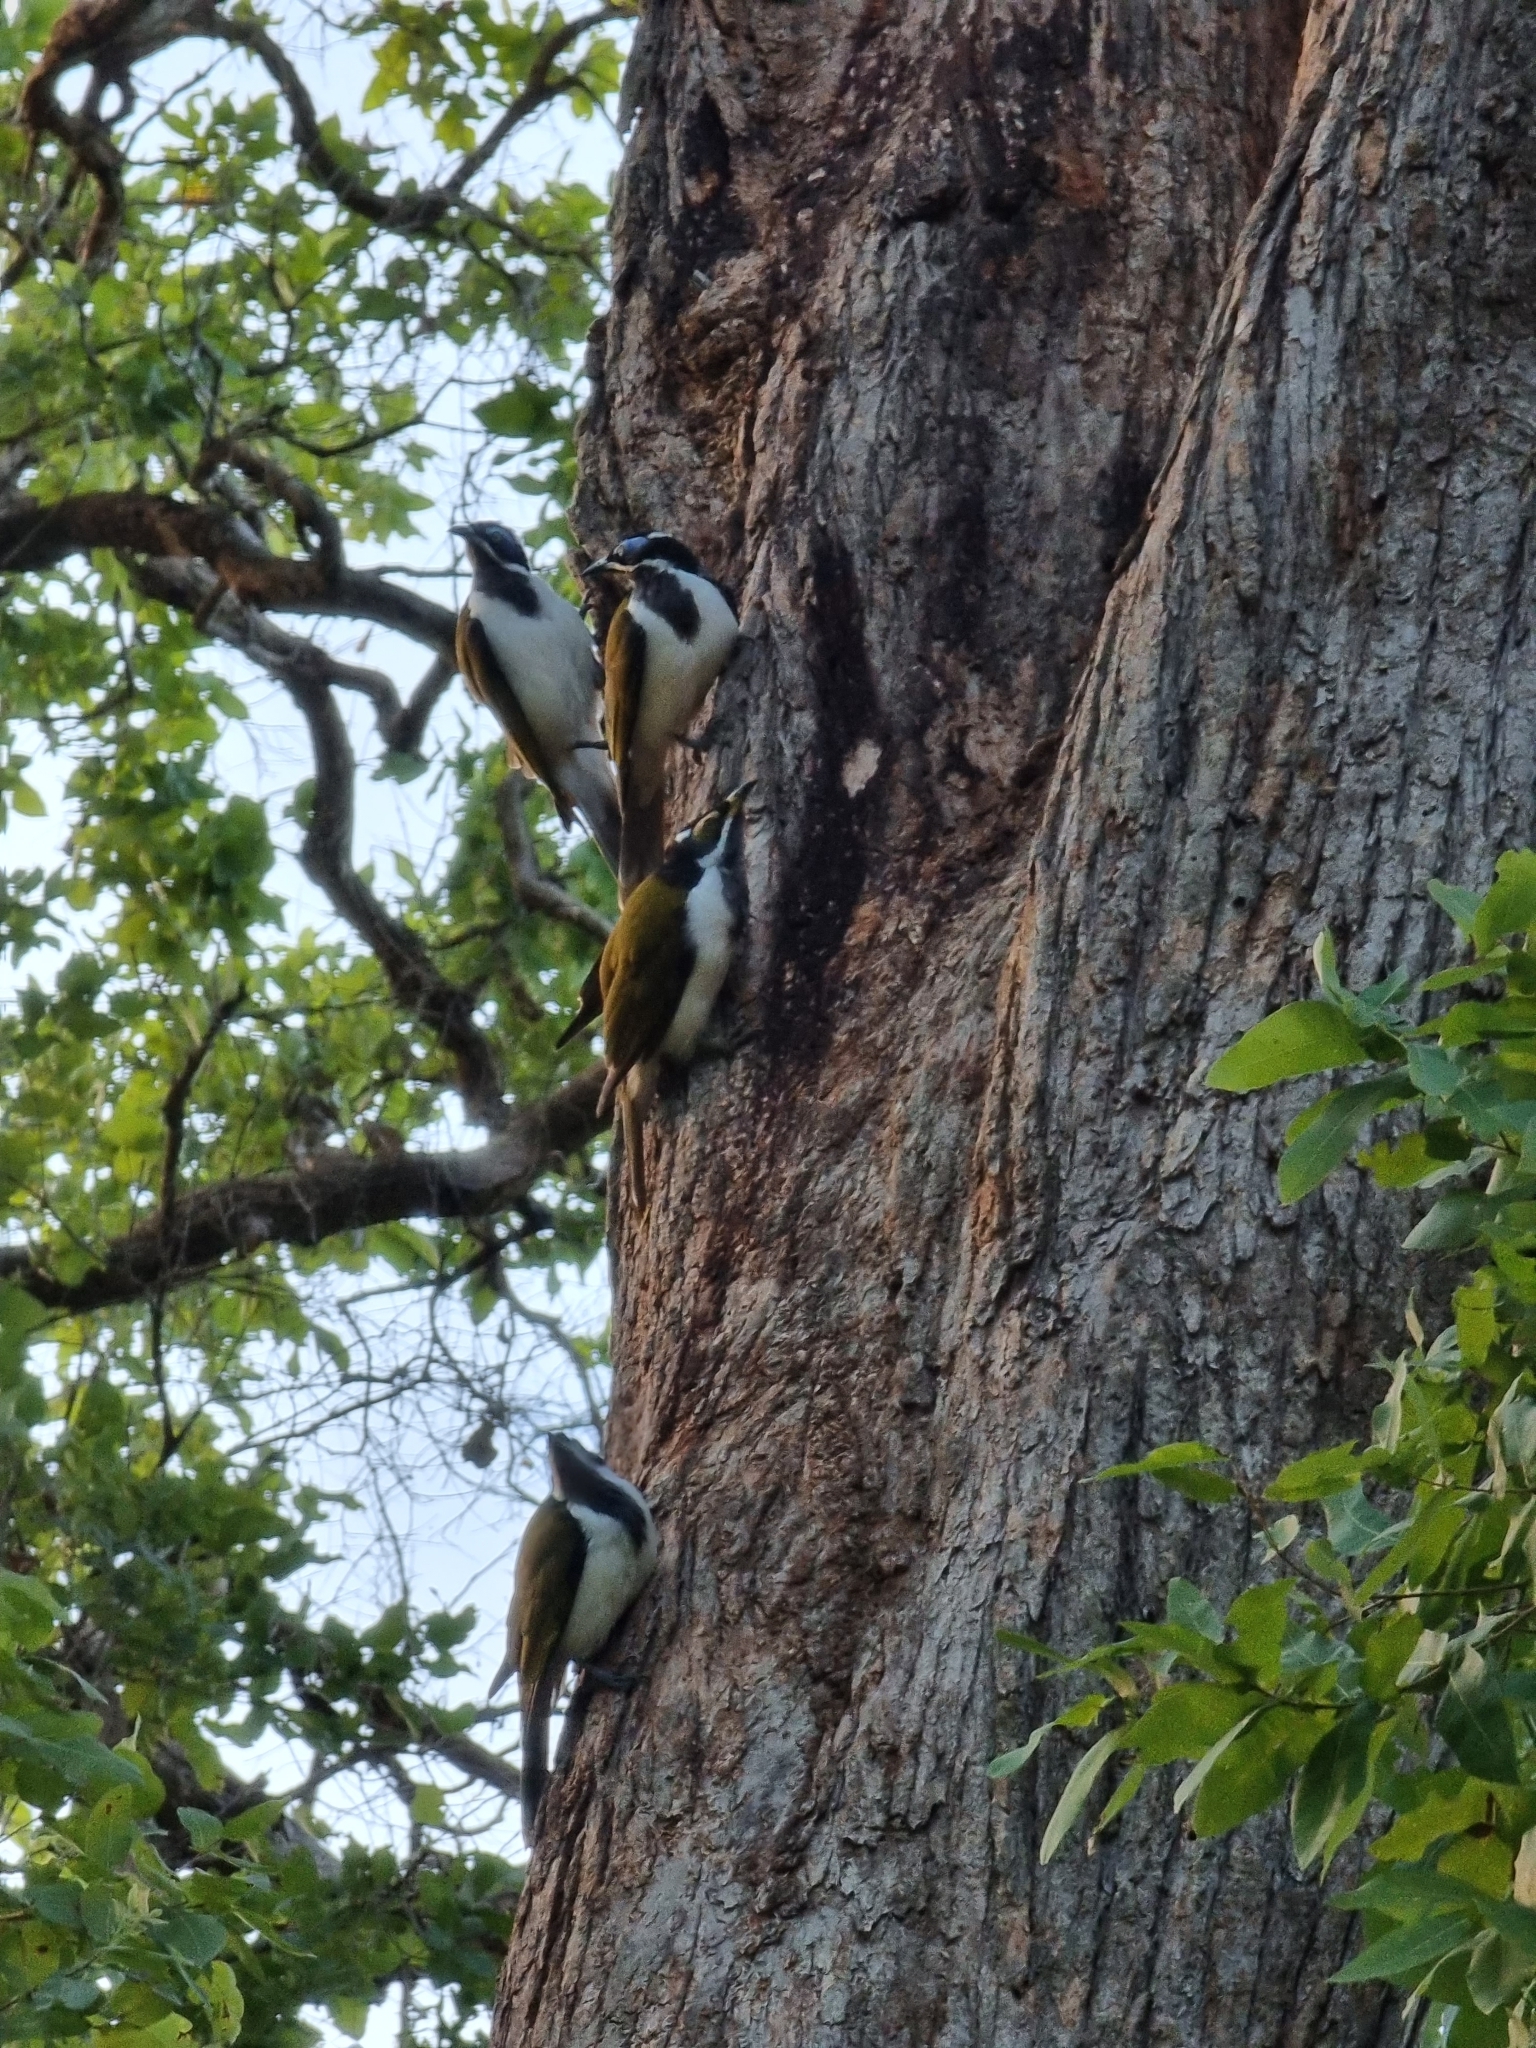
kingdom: Animalia
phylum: Chordata
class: Aves
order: Passeriformes
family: Meliphagidae
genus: Entomyzon
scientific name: Entomyzon cyanotis
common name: Blue-faced honeyeater
